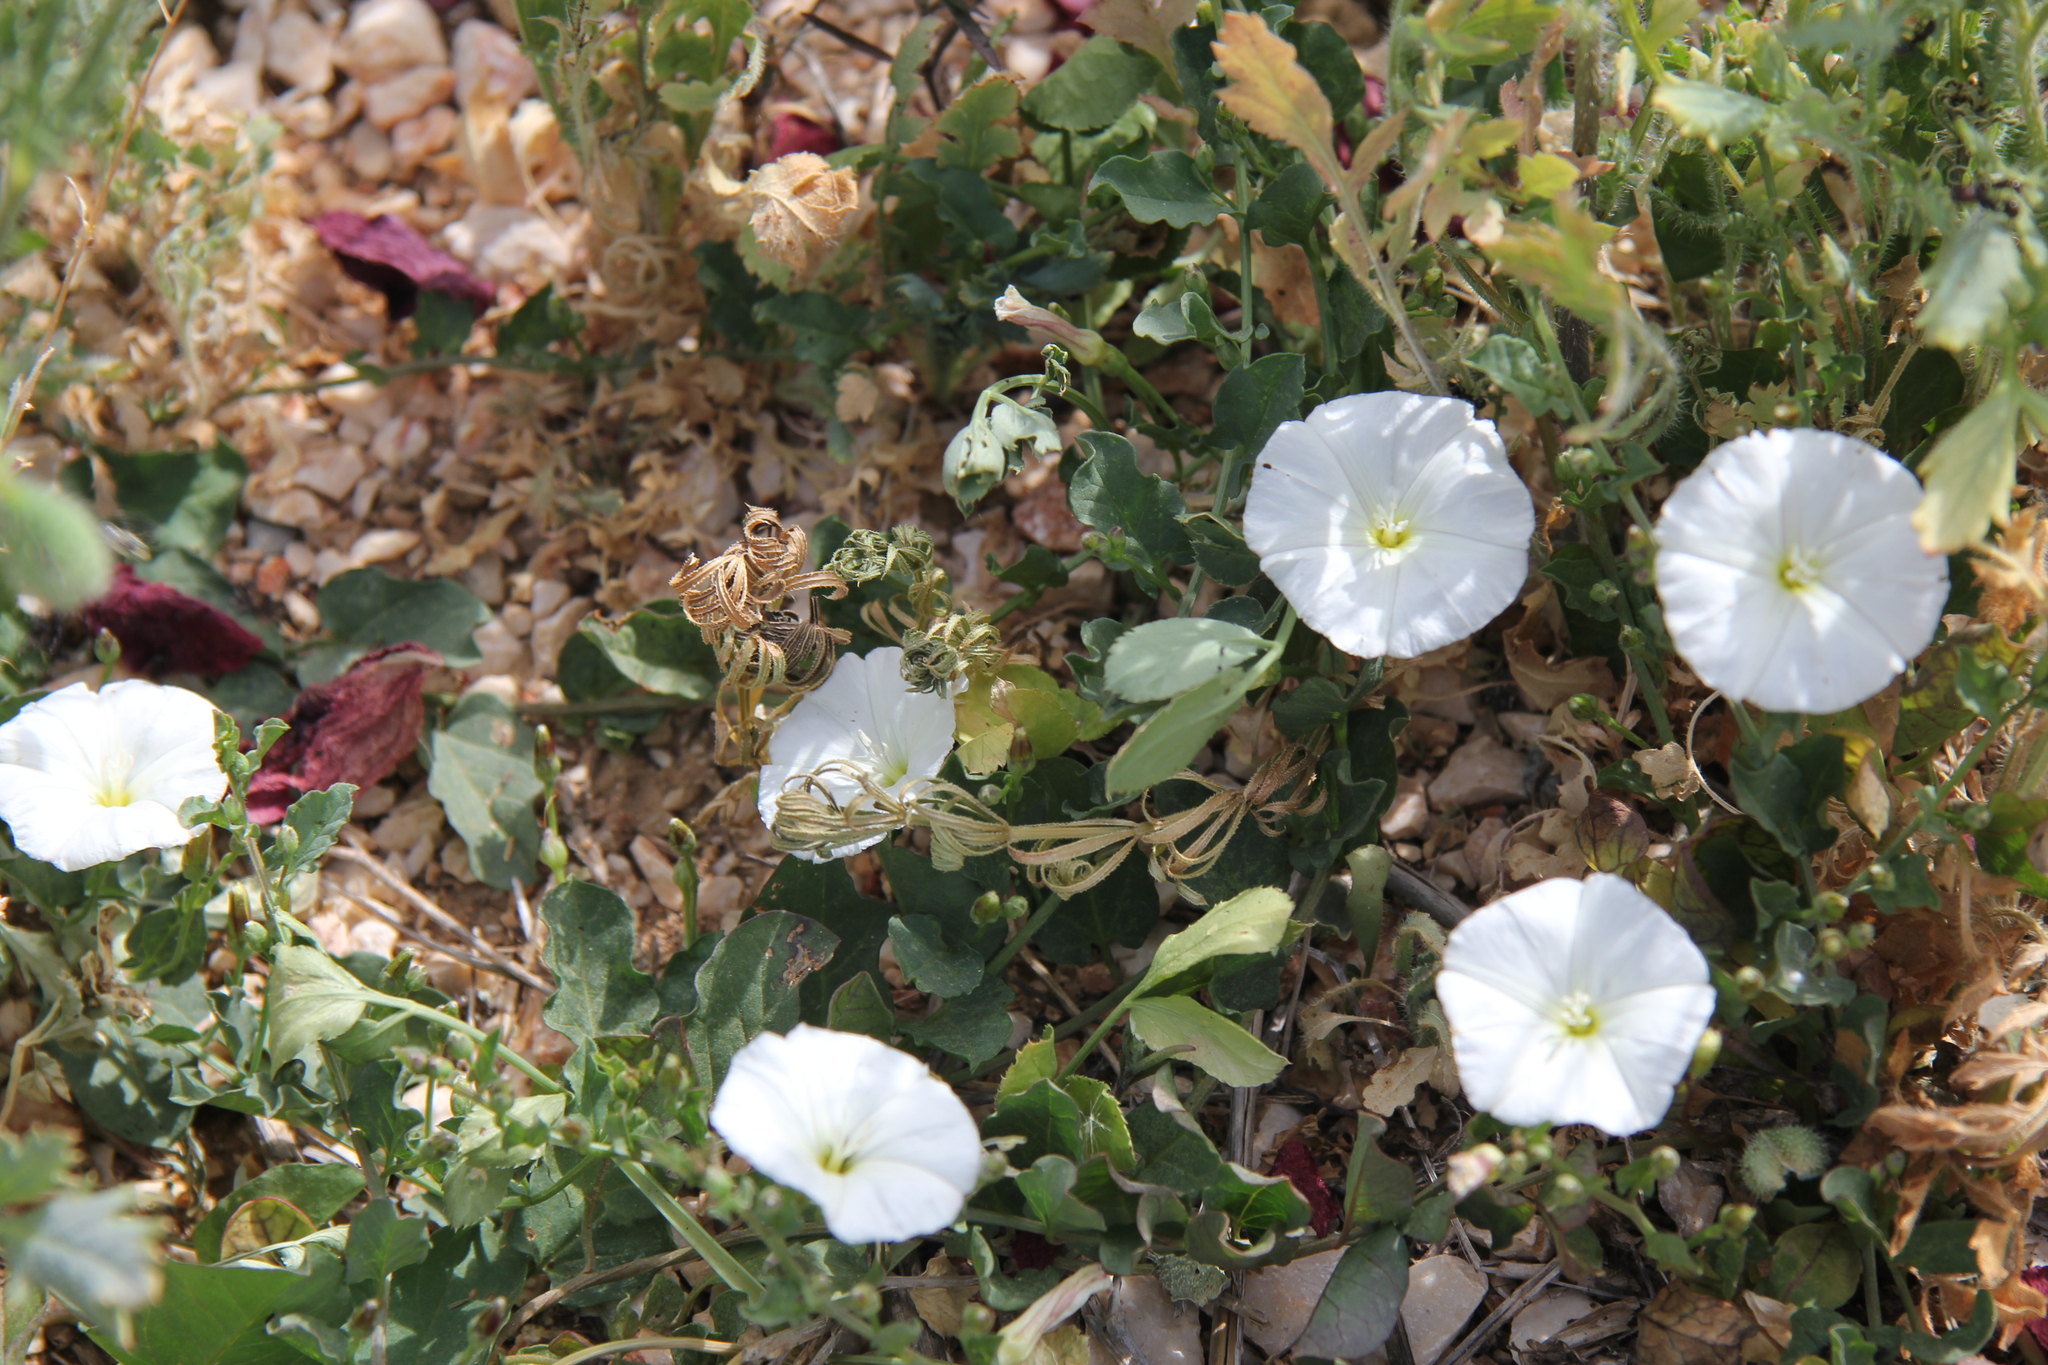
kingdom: Plantae
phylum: Tracheophyta
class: Magnoliopsida
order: Solanales
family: Convolvulaceae
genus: Convolvulus
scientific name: Convolvulus arvensis
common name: Field bindweed
